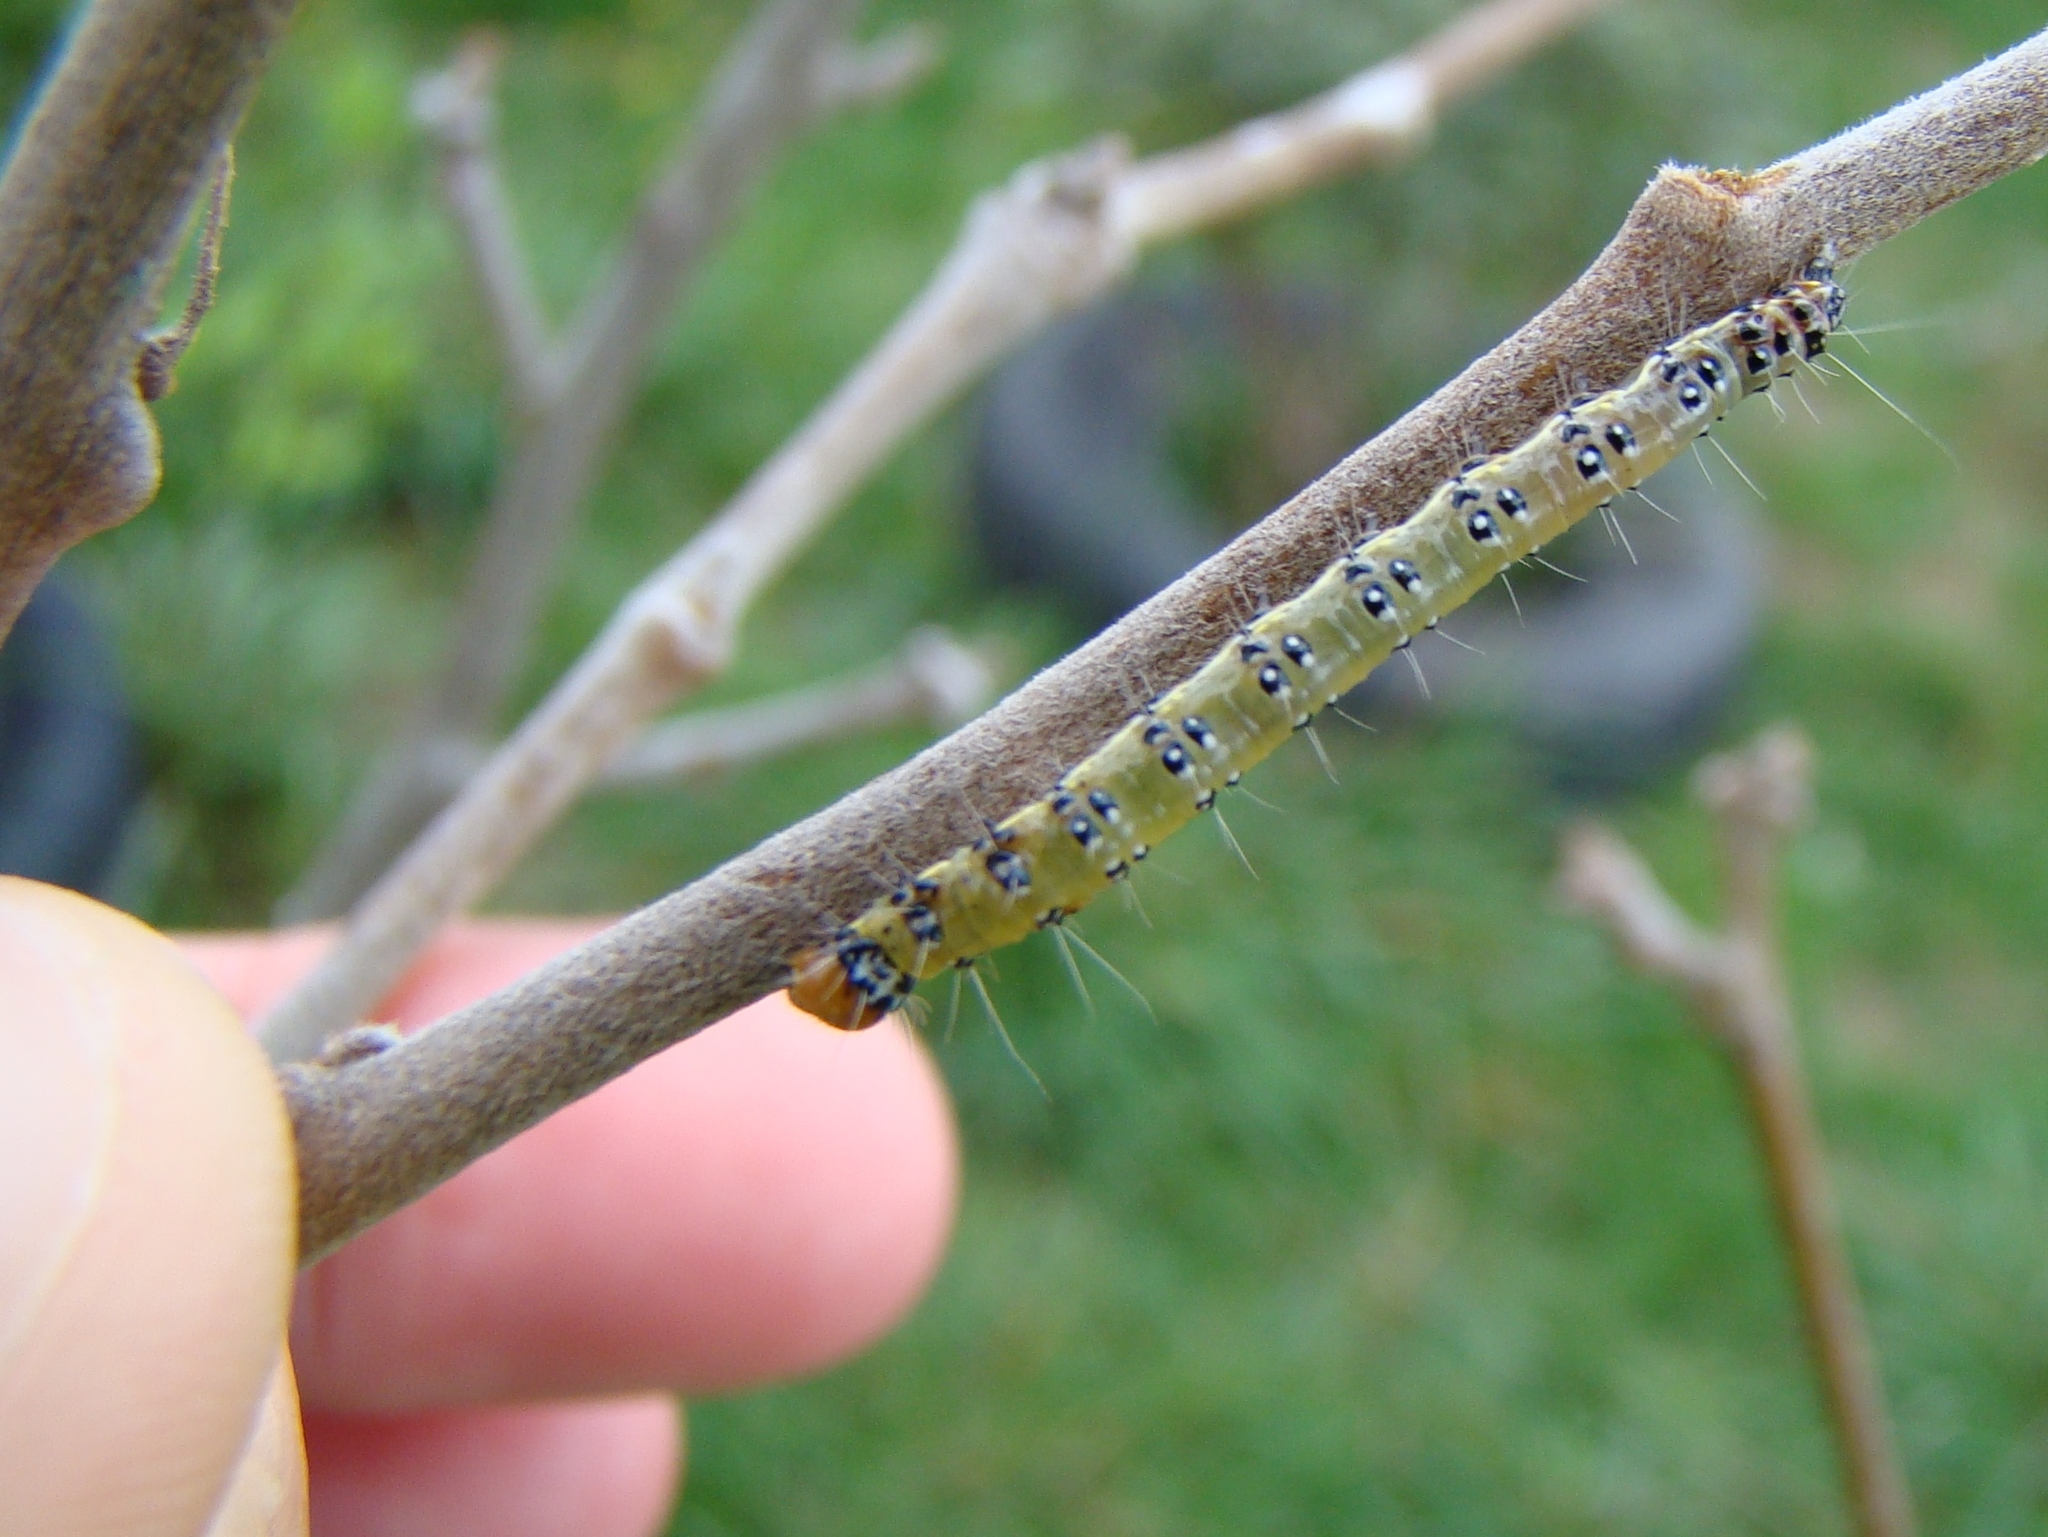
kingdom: Animalia
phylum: Arthropoda
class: Insecta
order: Lepidoptera
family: Crambidae
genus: Uresiphita
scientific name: Uresiphita
